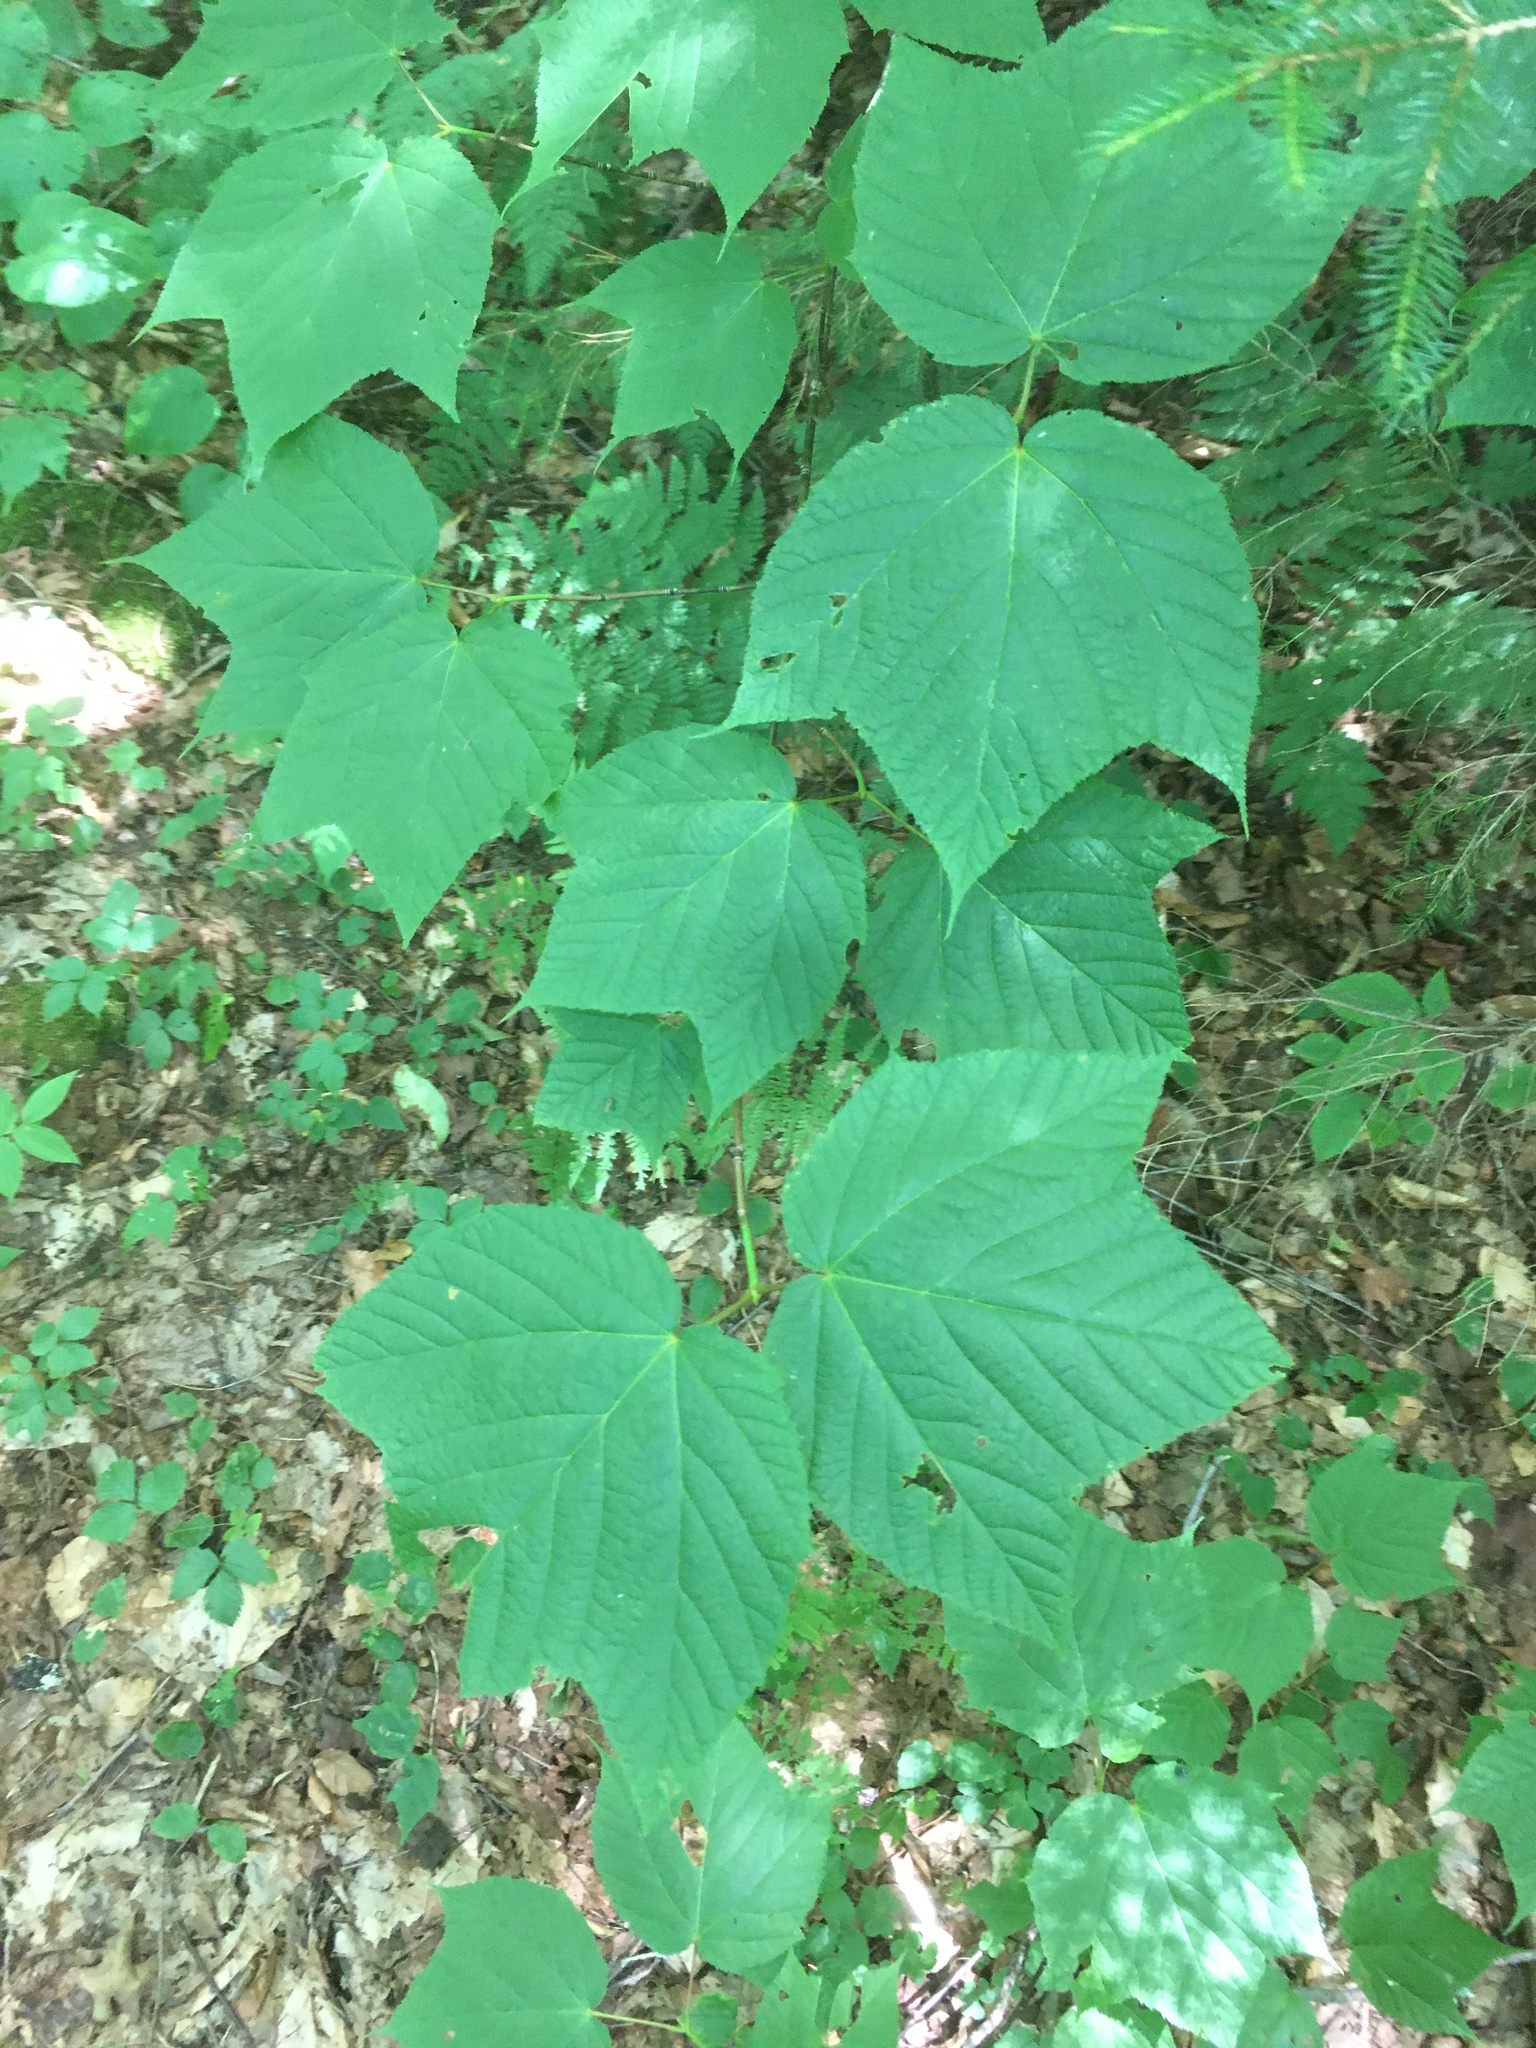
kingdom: Plantae
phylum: Tracheophyta
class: Magnoliopsida
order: Sapindales
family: Sapindaceae
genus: Acer
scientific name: Acer pensylvanicum
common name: Moosewood
